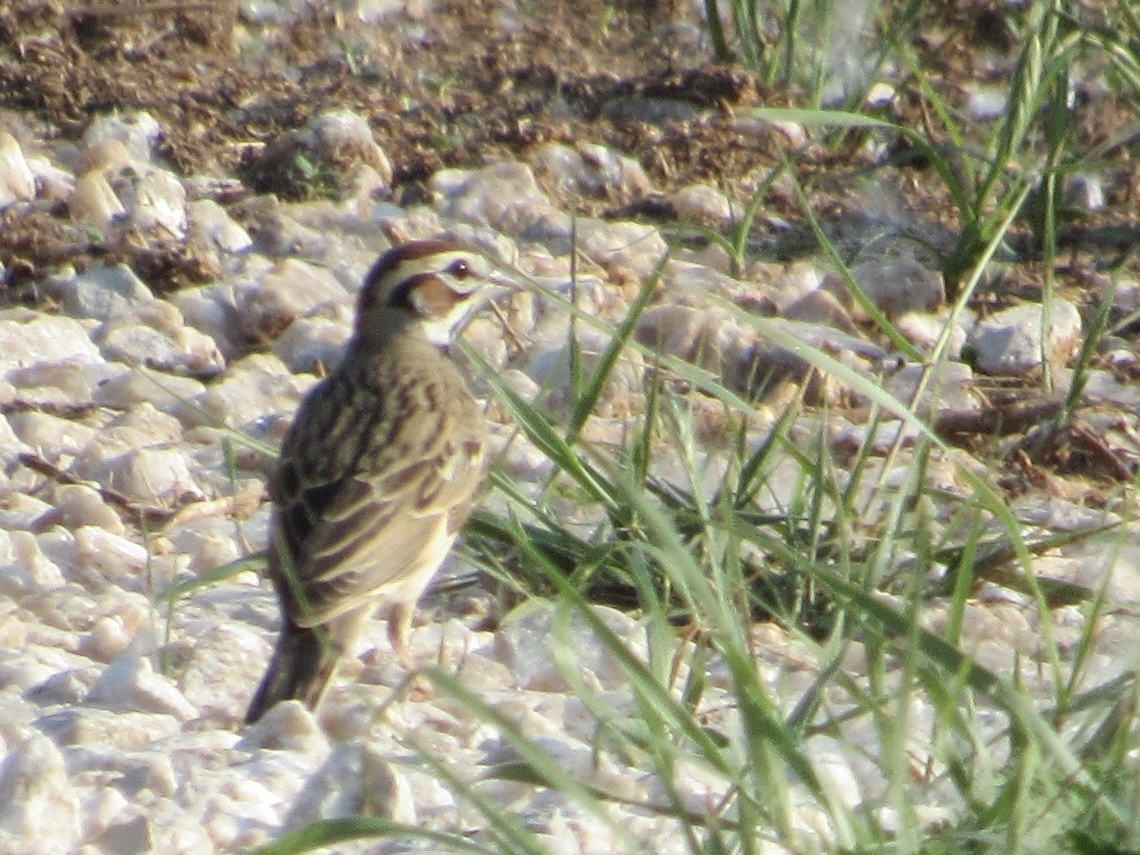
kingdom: Animalia
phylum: Chordata
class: Aves
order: Passeriformes
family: Passerellidae
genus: Chondestes
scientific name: Chondestes grammacus
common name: Lark sparrow
